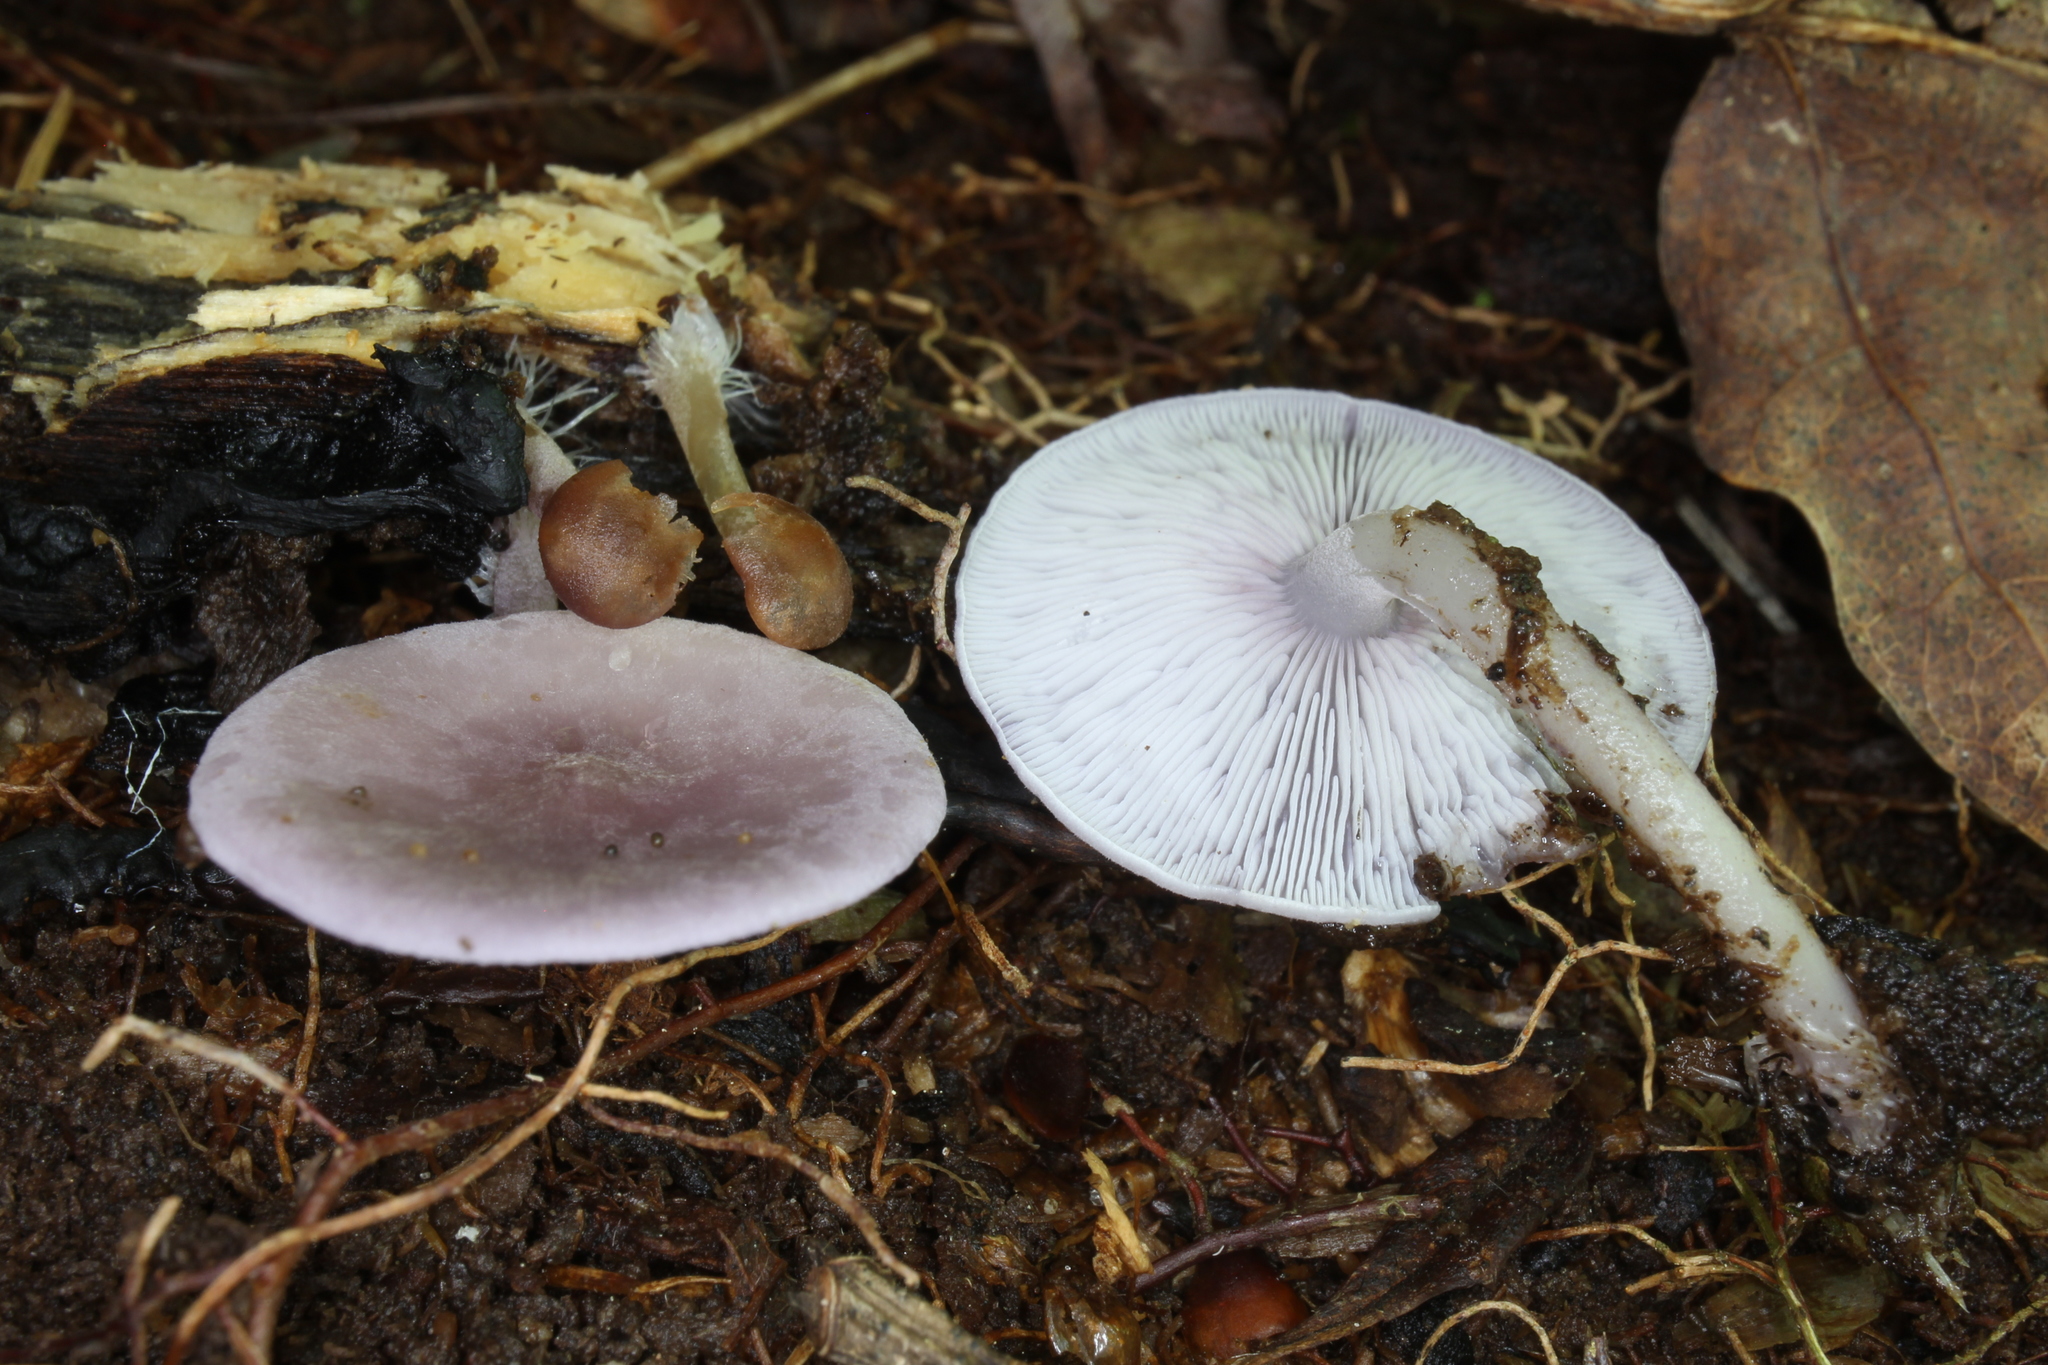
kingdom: Fungi
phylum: Basidiomycota
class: Agaricomycetes
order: Agaricales
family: Marasmiaceae
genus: Baeospora
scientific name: Baeospora myriadophylla
